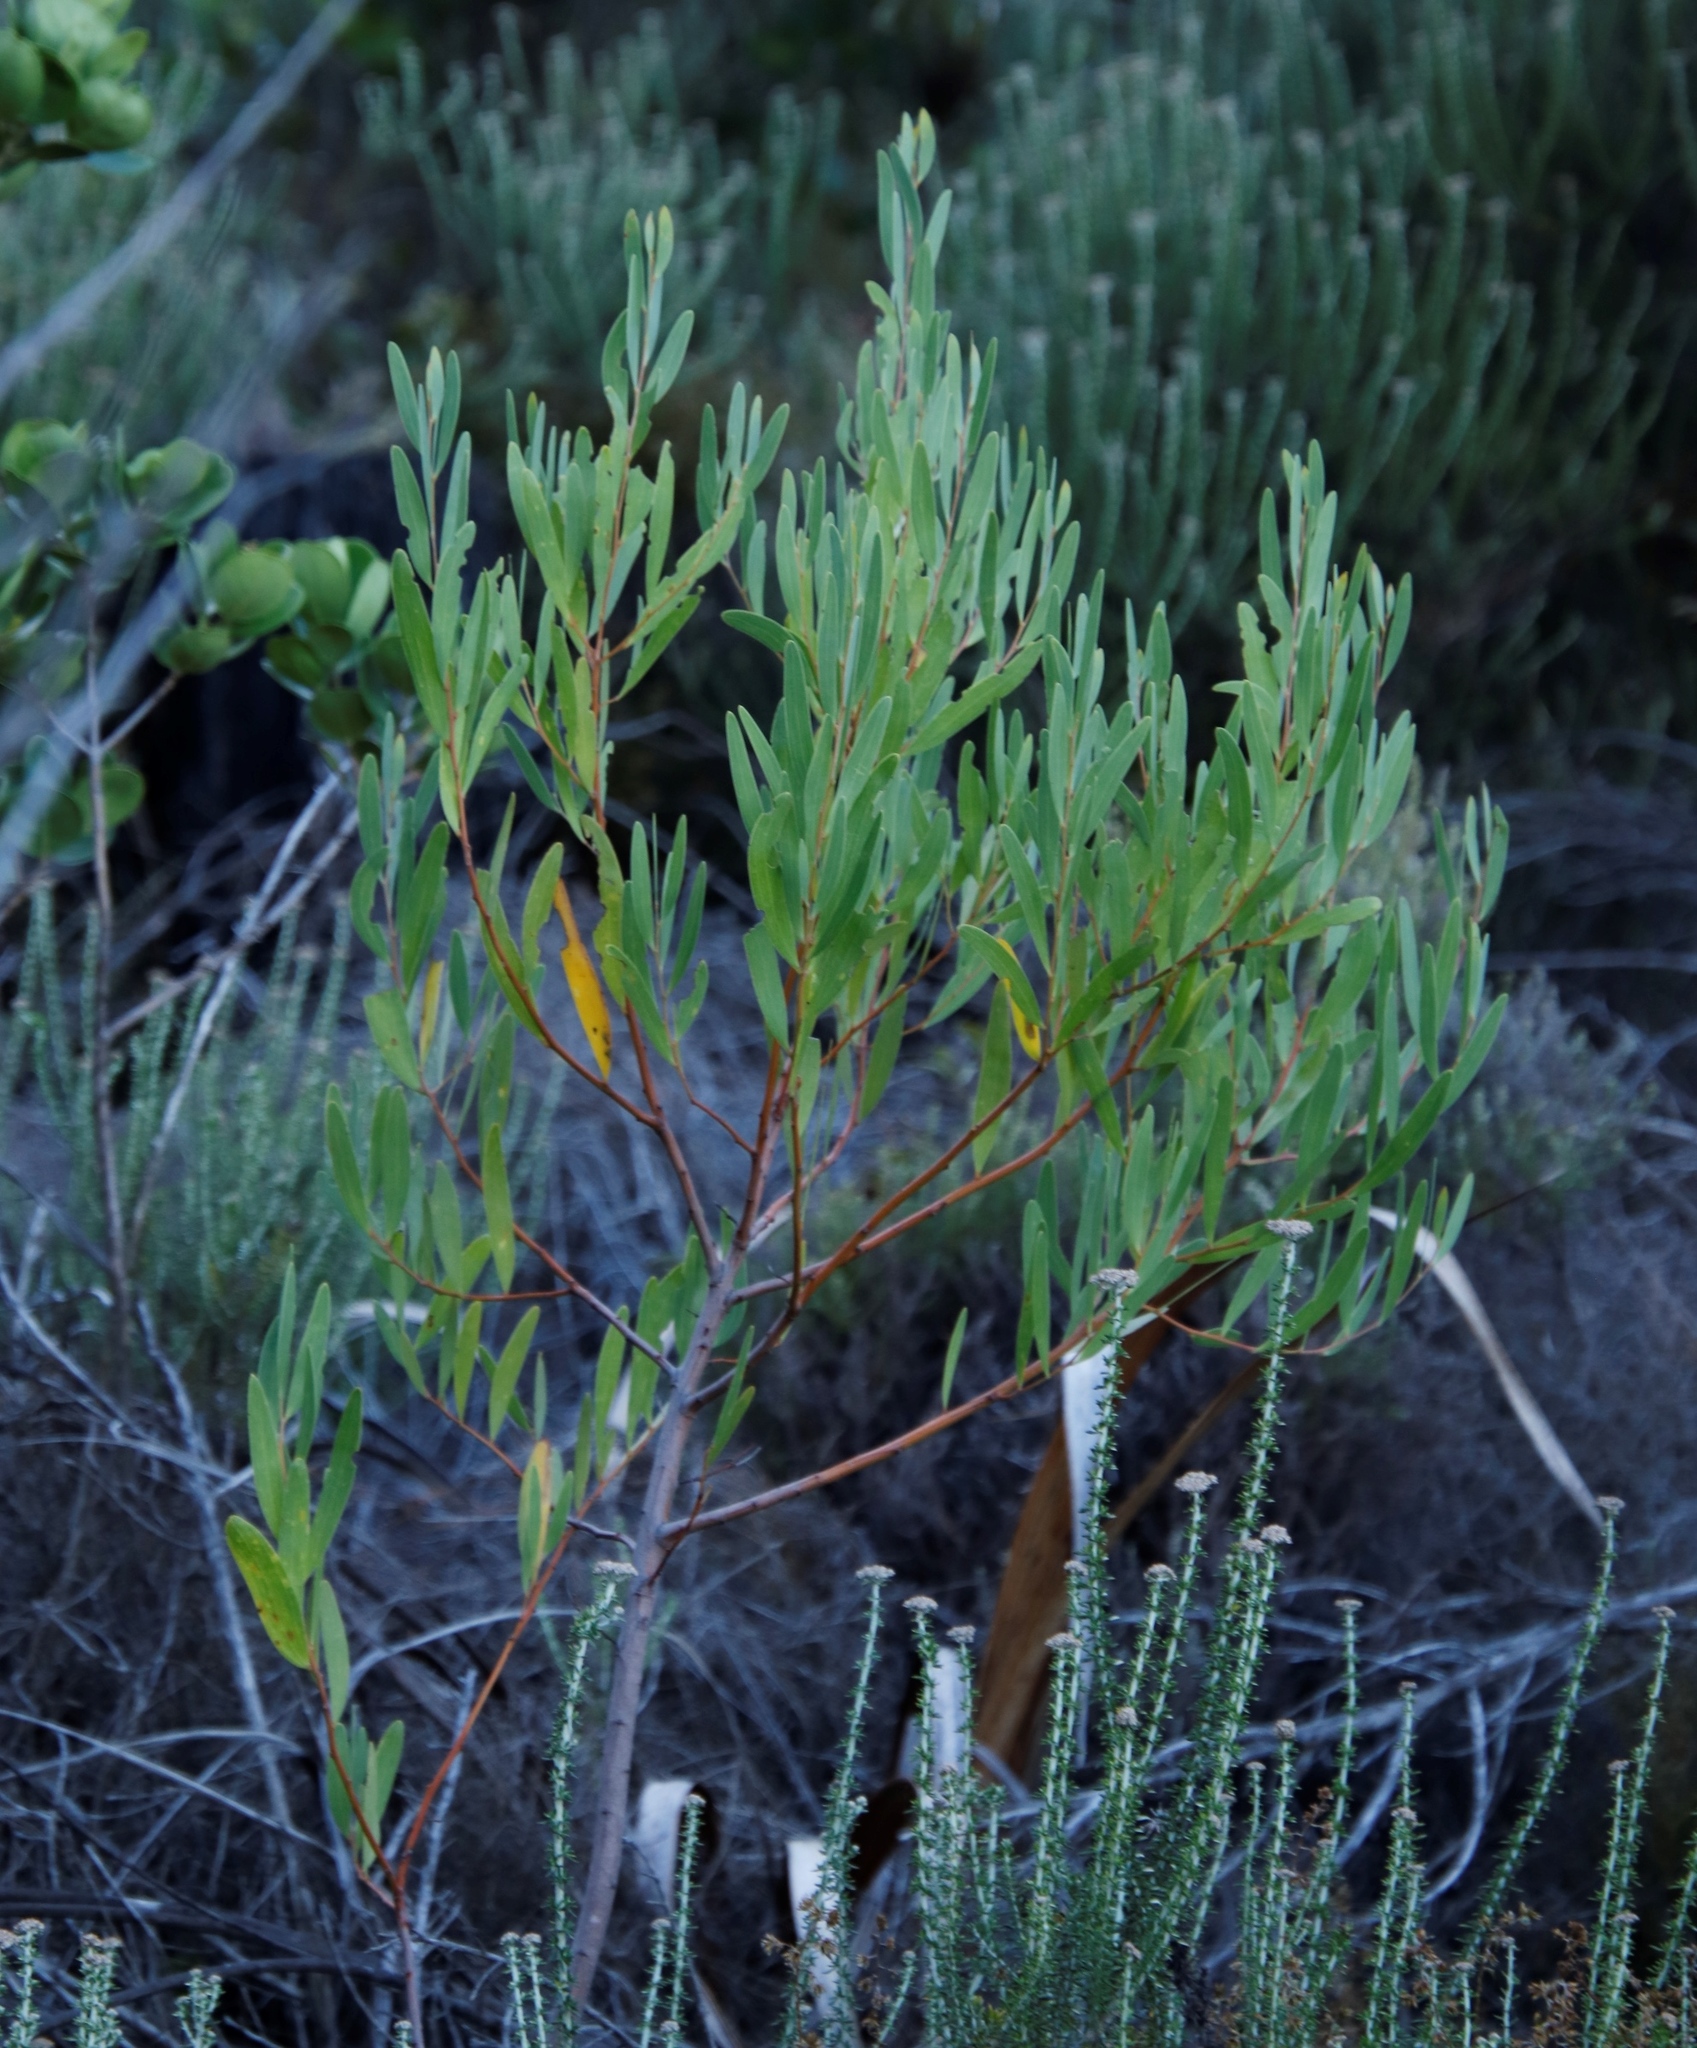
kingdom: Plantae
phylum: Tracheophyta
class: Magnoliopsida
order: Fabales
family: Fabaceae
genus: Acacia
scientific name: Acacia cyclops
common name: Coastal wattle
